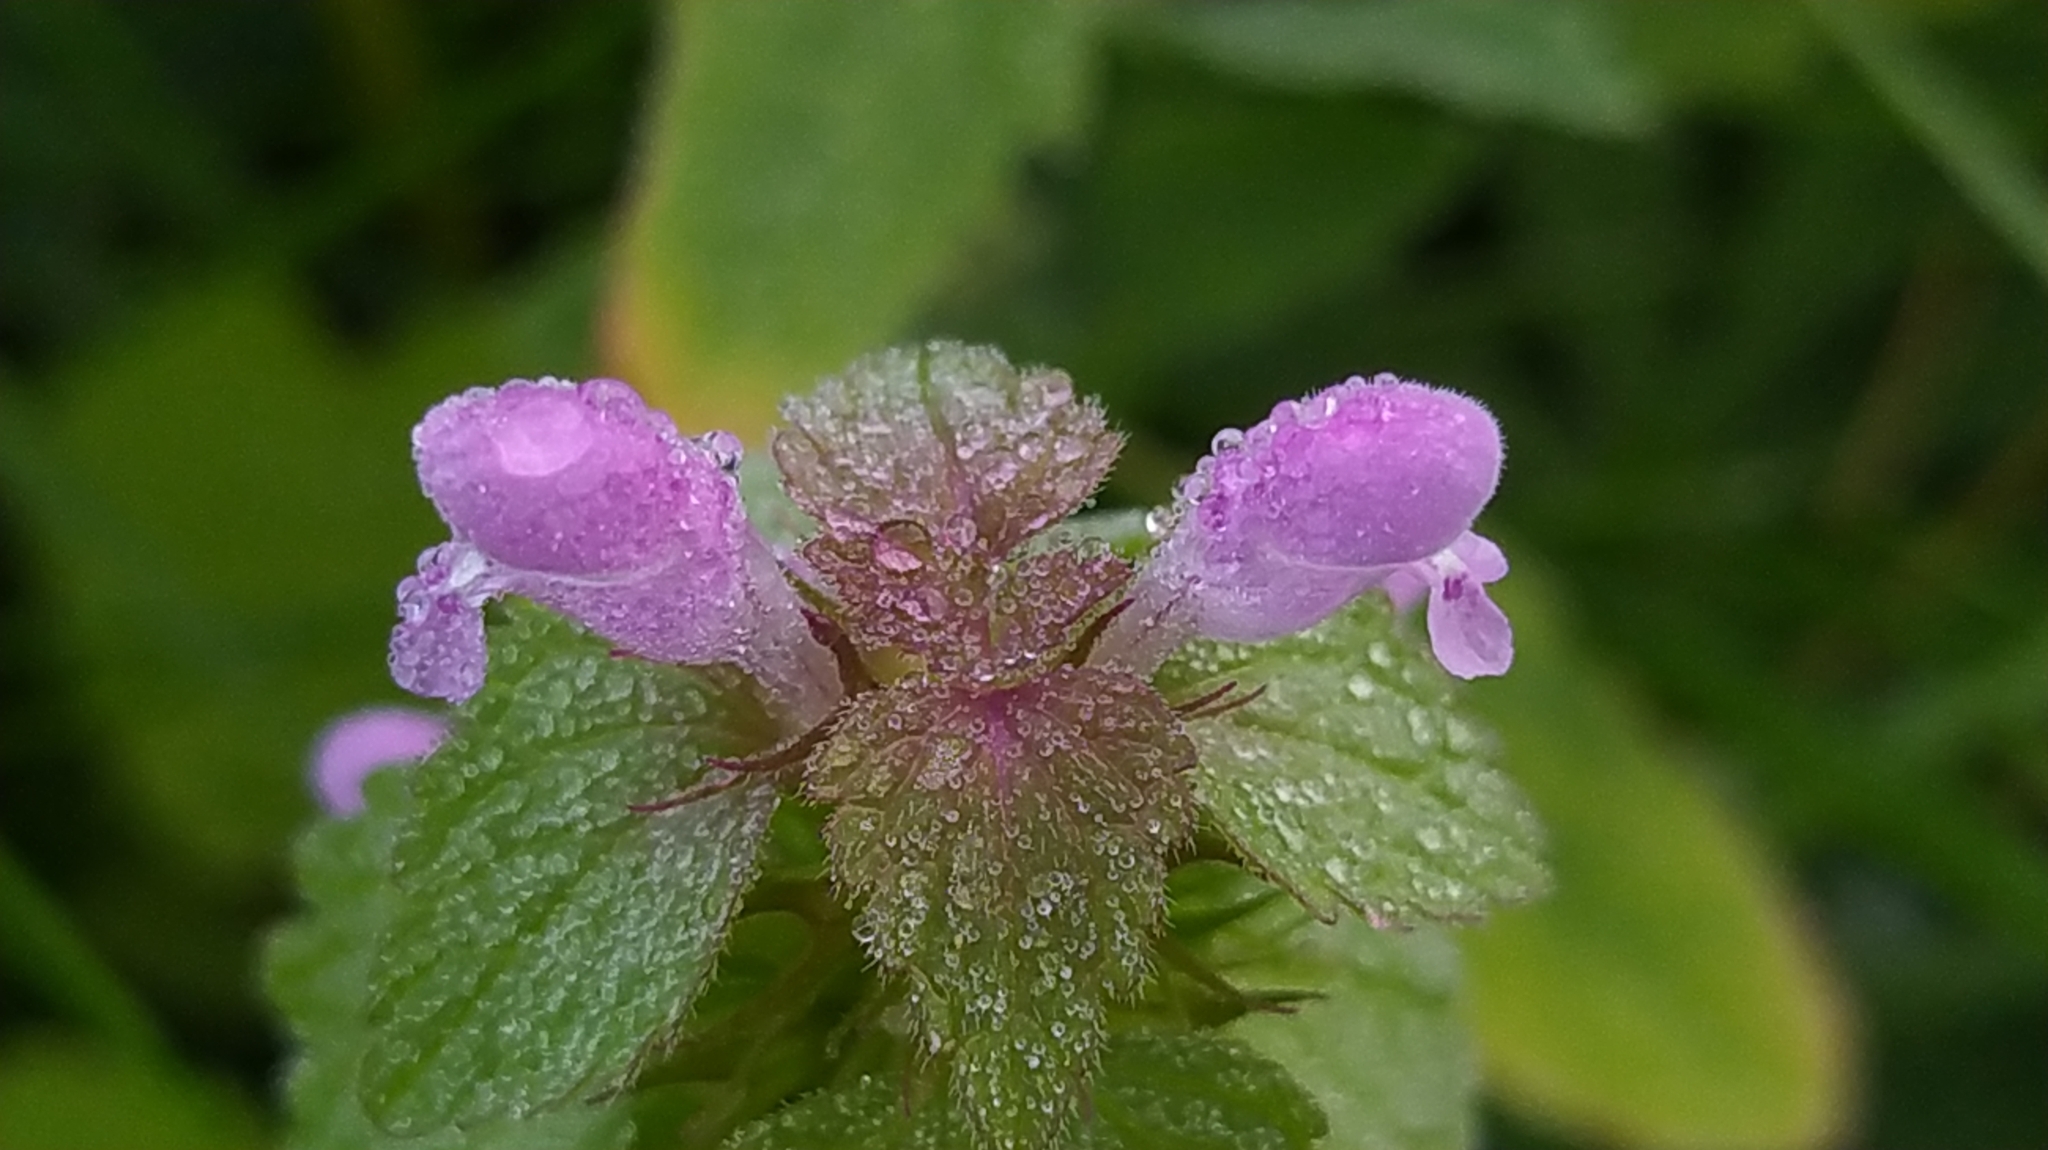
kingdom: Plantae
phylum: Tracheophyta
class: Magnoliopsida
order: Lamiales
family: Lamiaceae
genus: Lamium
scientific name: Lamium purpureum
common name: Red dead-nettle
